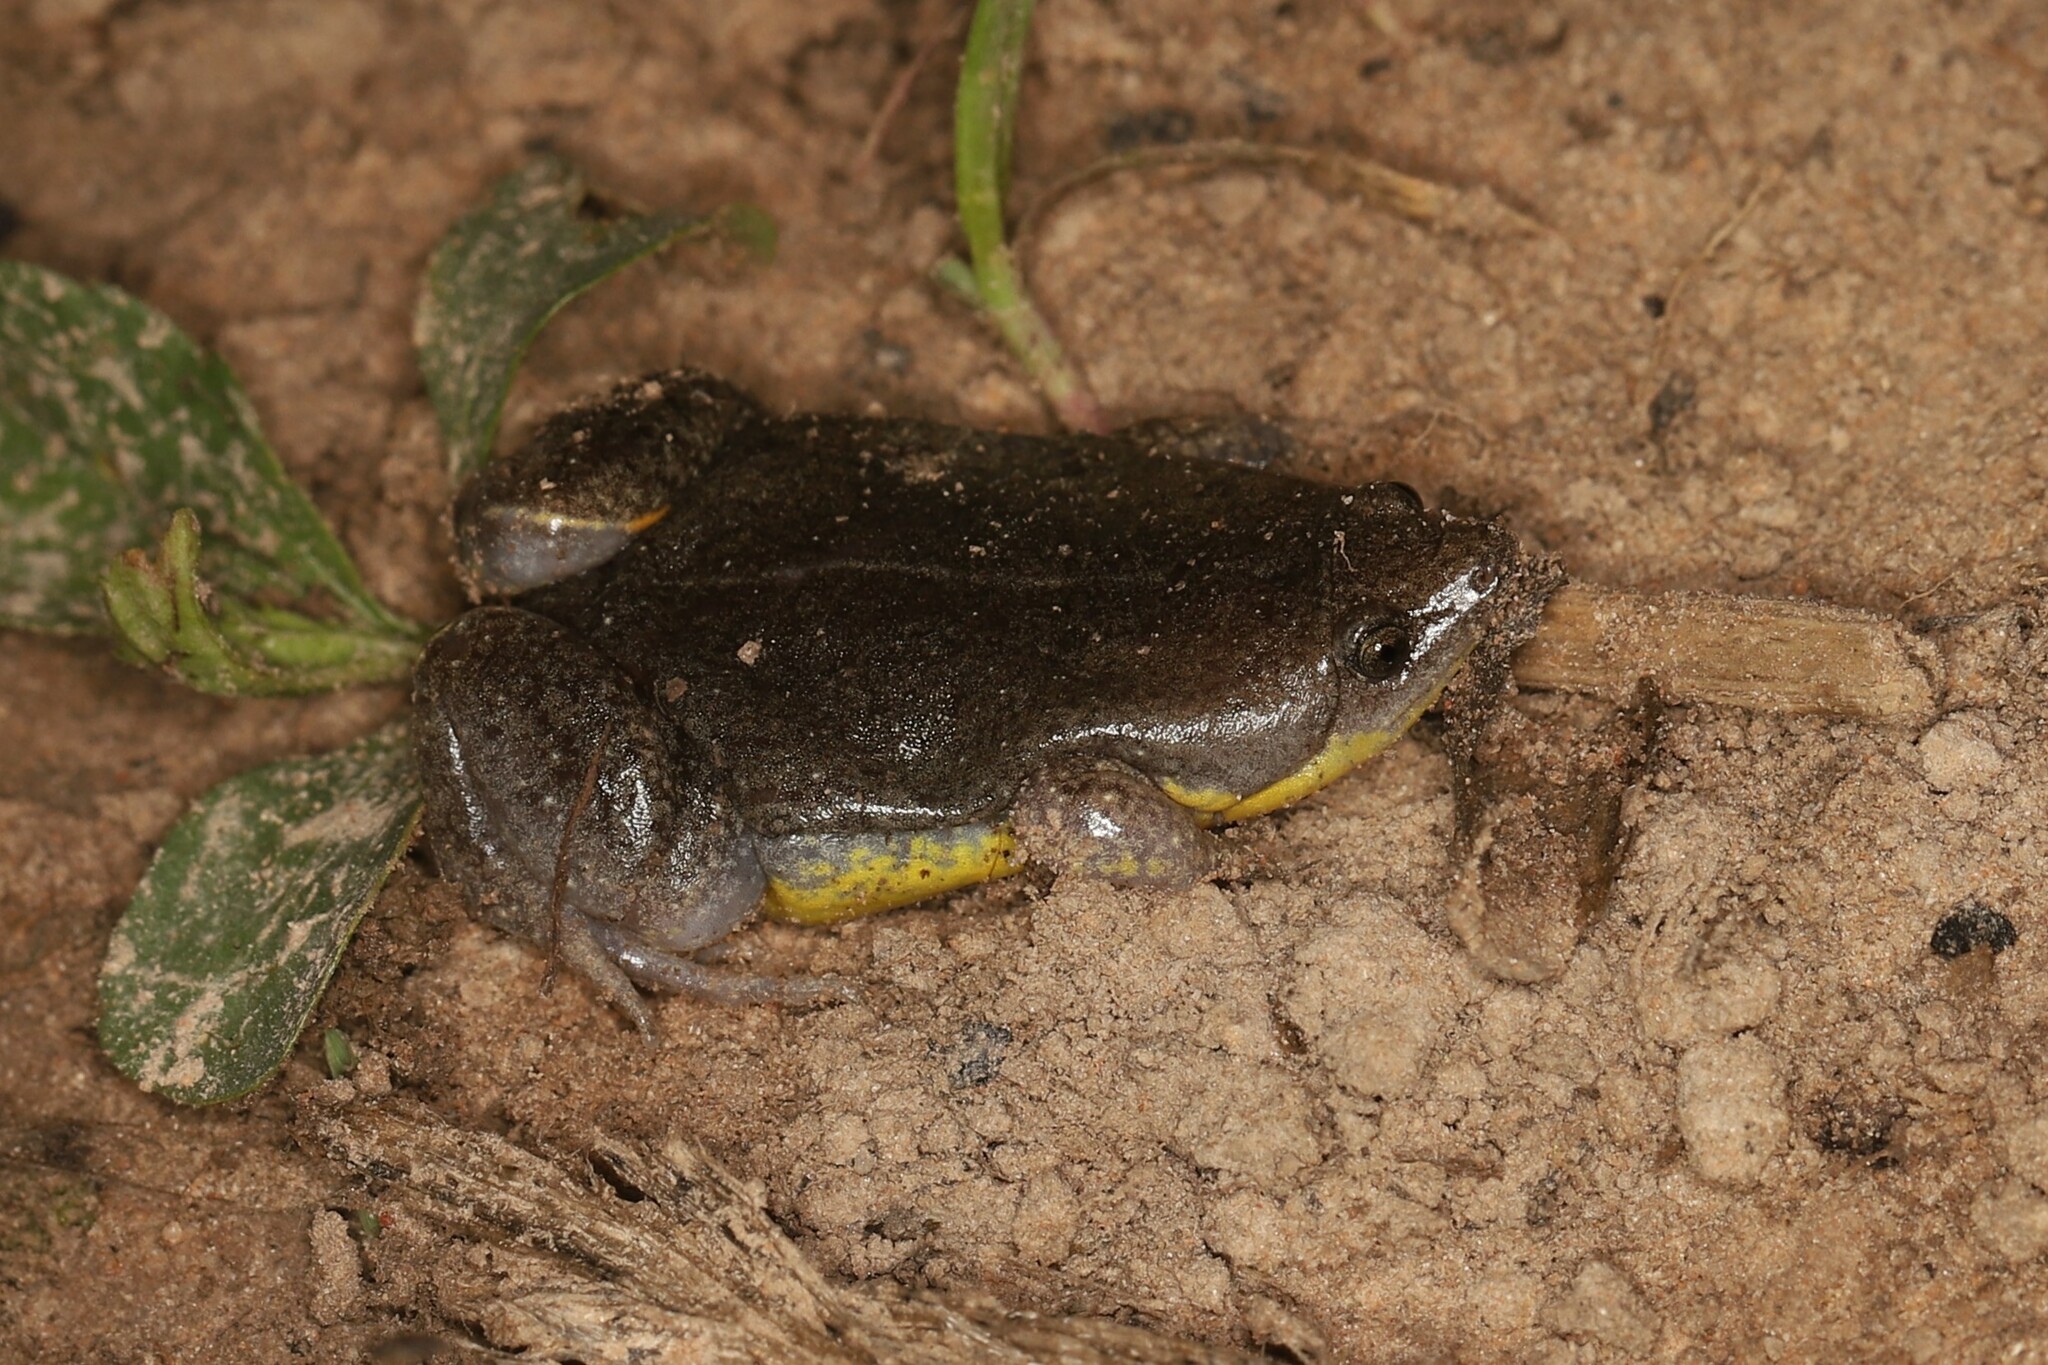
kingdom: Animalia
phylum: Chordata
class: Amphibia
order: Anura
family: Microhylidae
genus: Elachistocleis
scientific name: Elachistocleis bicolor
